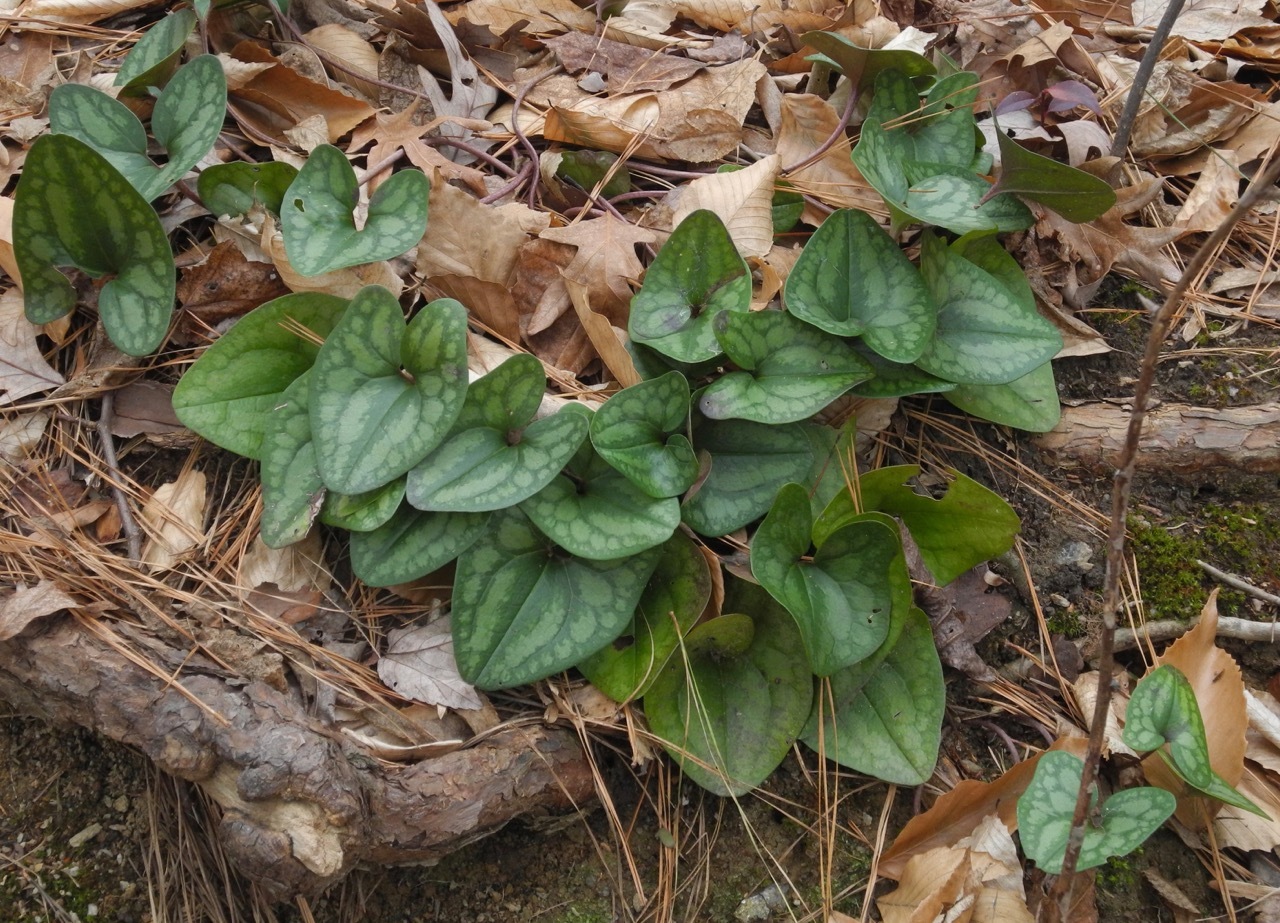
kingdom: Plantae
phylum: Tracheophyta
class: Magnoliopsida
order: Piperales
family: Aristolochiaceae
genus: Hexastylis
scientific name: Hexastylis arifolia
